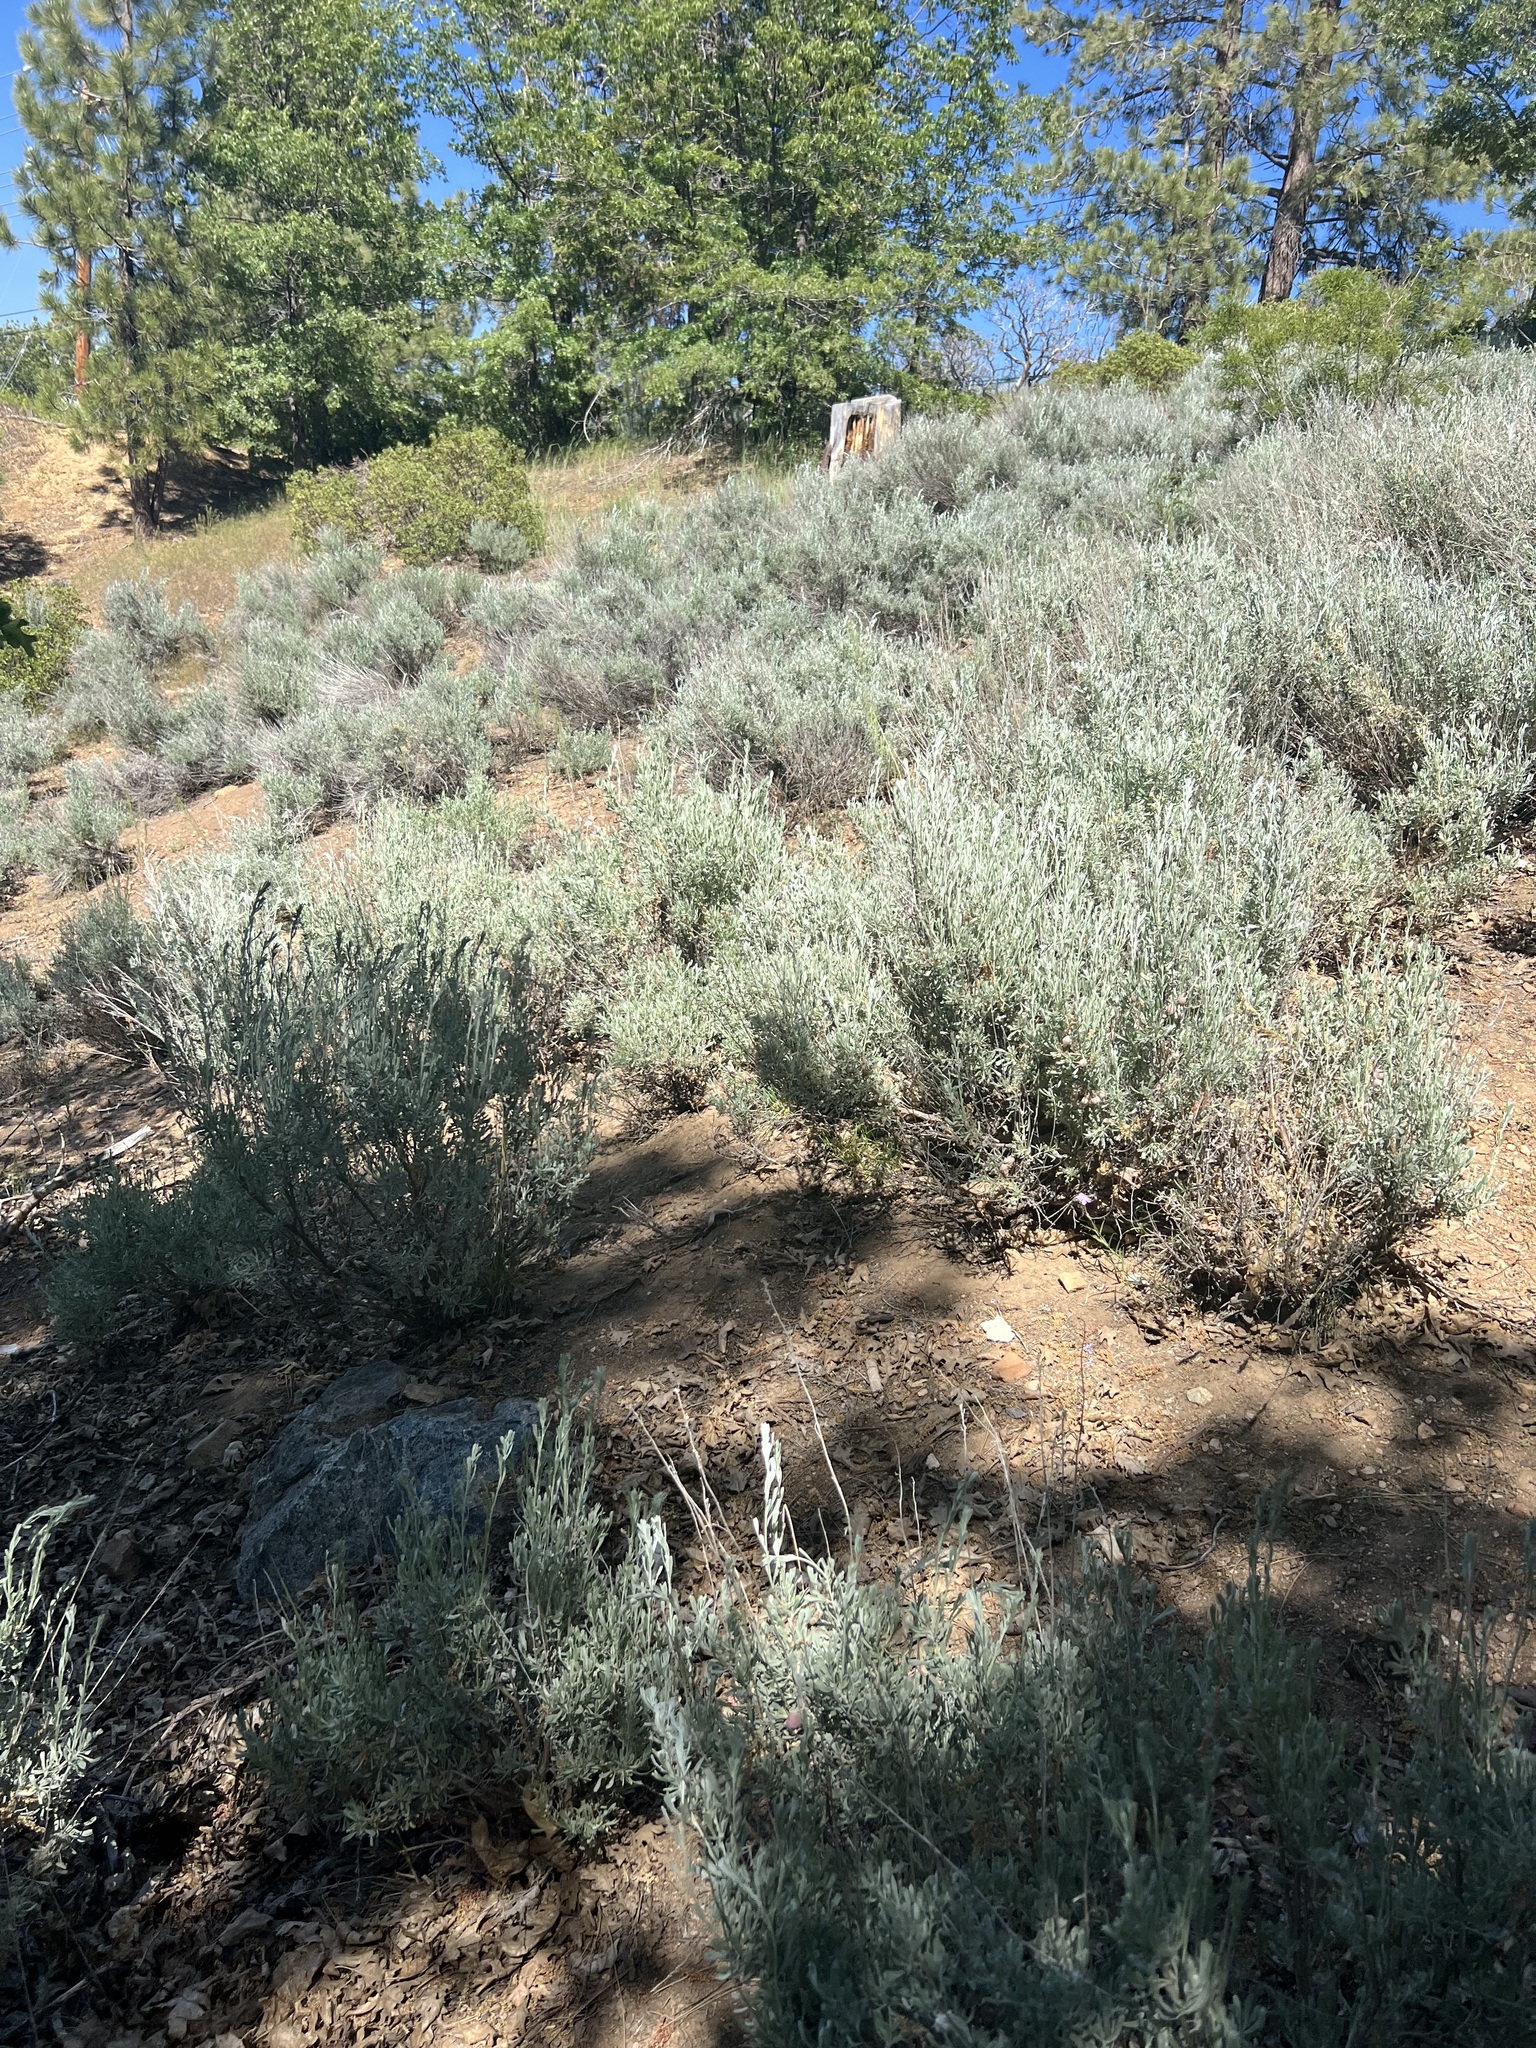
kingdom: Plantae
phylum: Tracheophyta
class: Magnoliopsida
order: Asterales
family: Asteraceae
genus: Artemisia
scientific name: Artemisia tridentata
